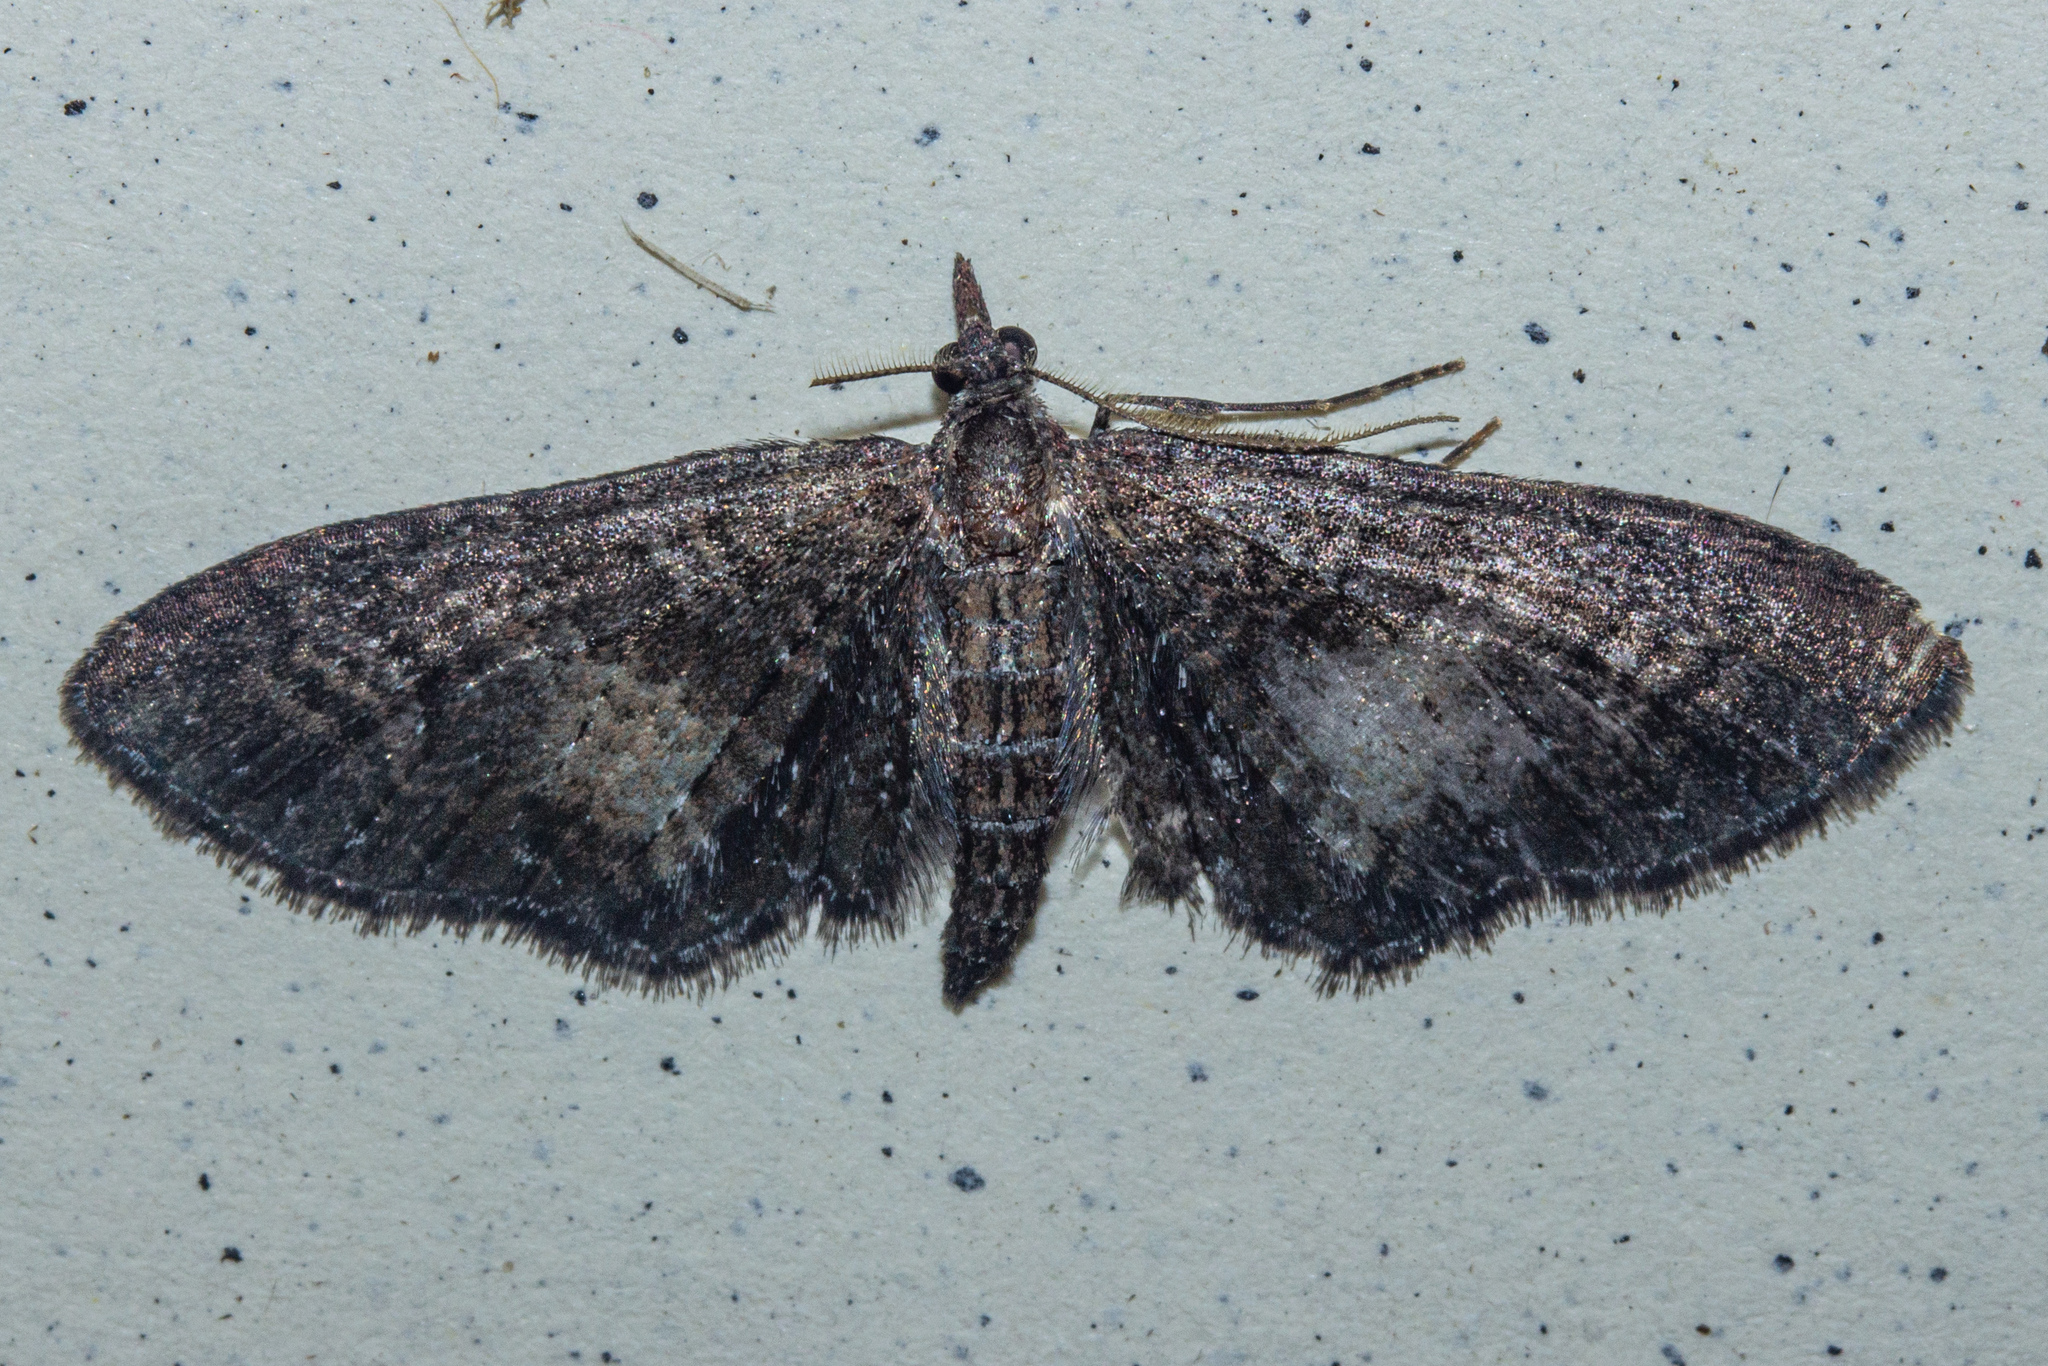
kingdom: Animalia
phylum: Arthropoda
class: Insecta
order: Lepidoptera
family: Geometridae
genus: Pasiphila
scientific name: Pasiphila heighwayi
